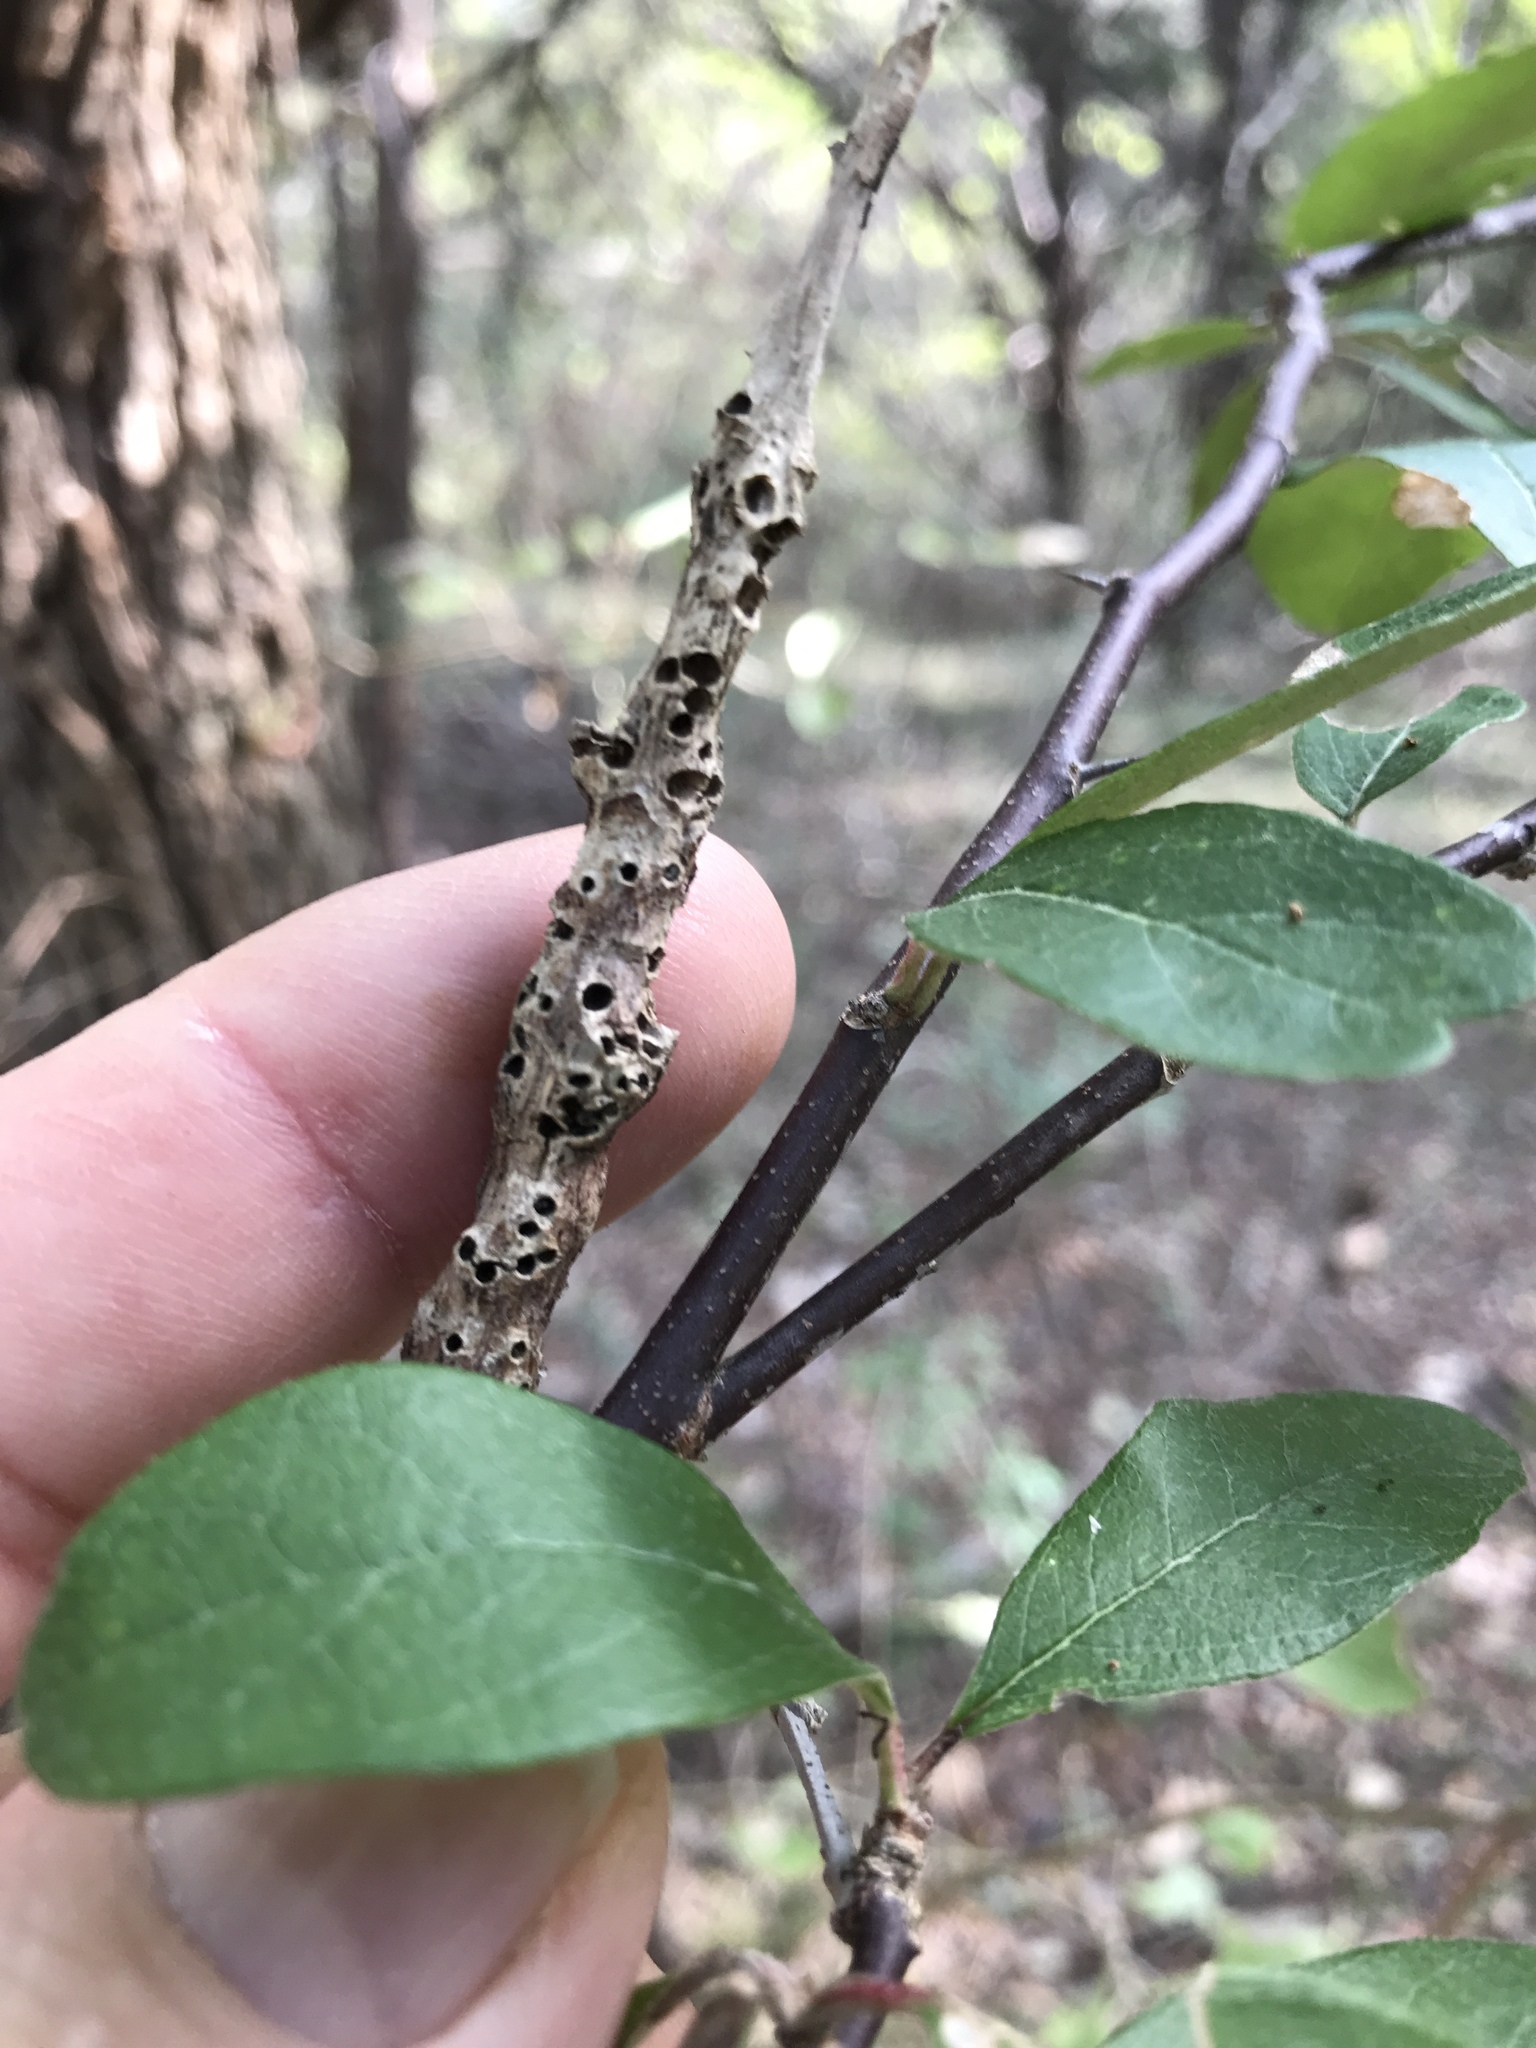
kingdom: Animalia
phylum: Arthropoda
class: Insecta
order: Diptera
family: Cecidomyiidae
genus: Bruggmanniella
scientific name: Bruggmanniella bumeliae
